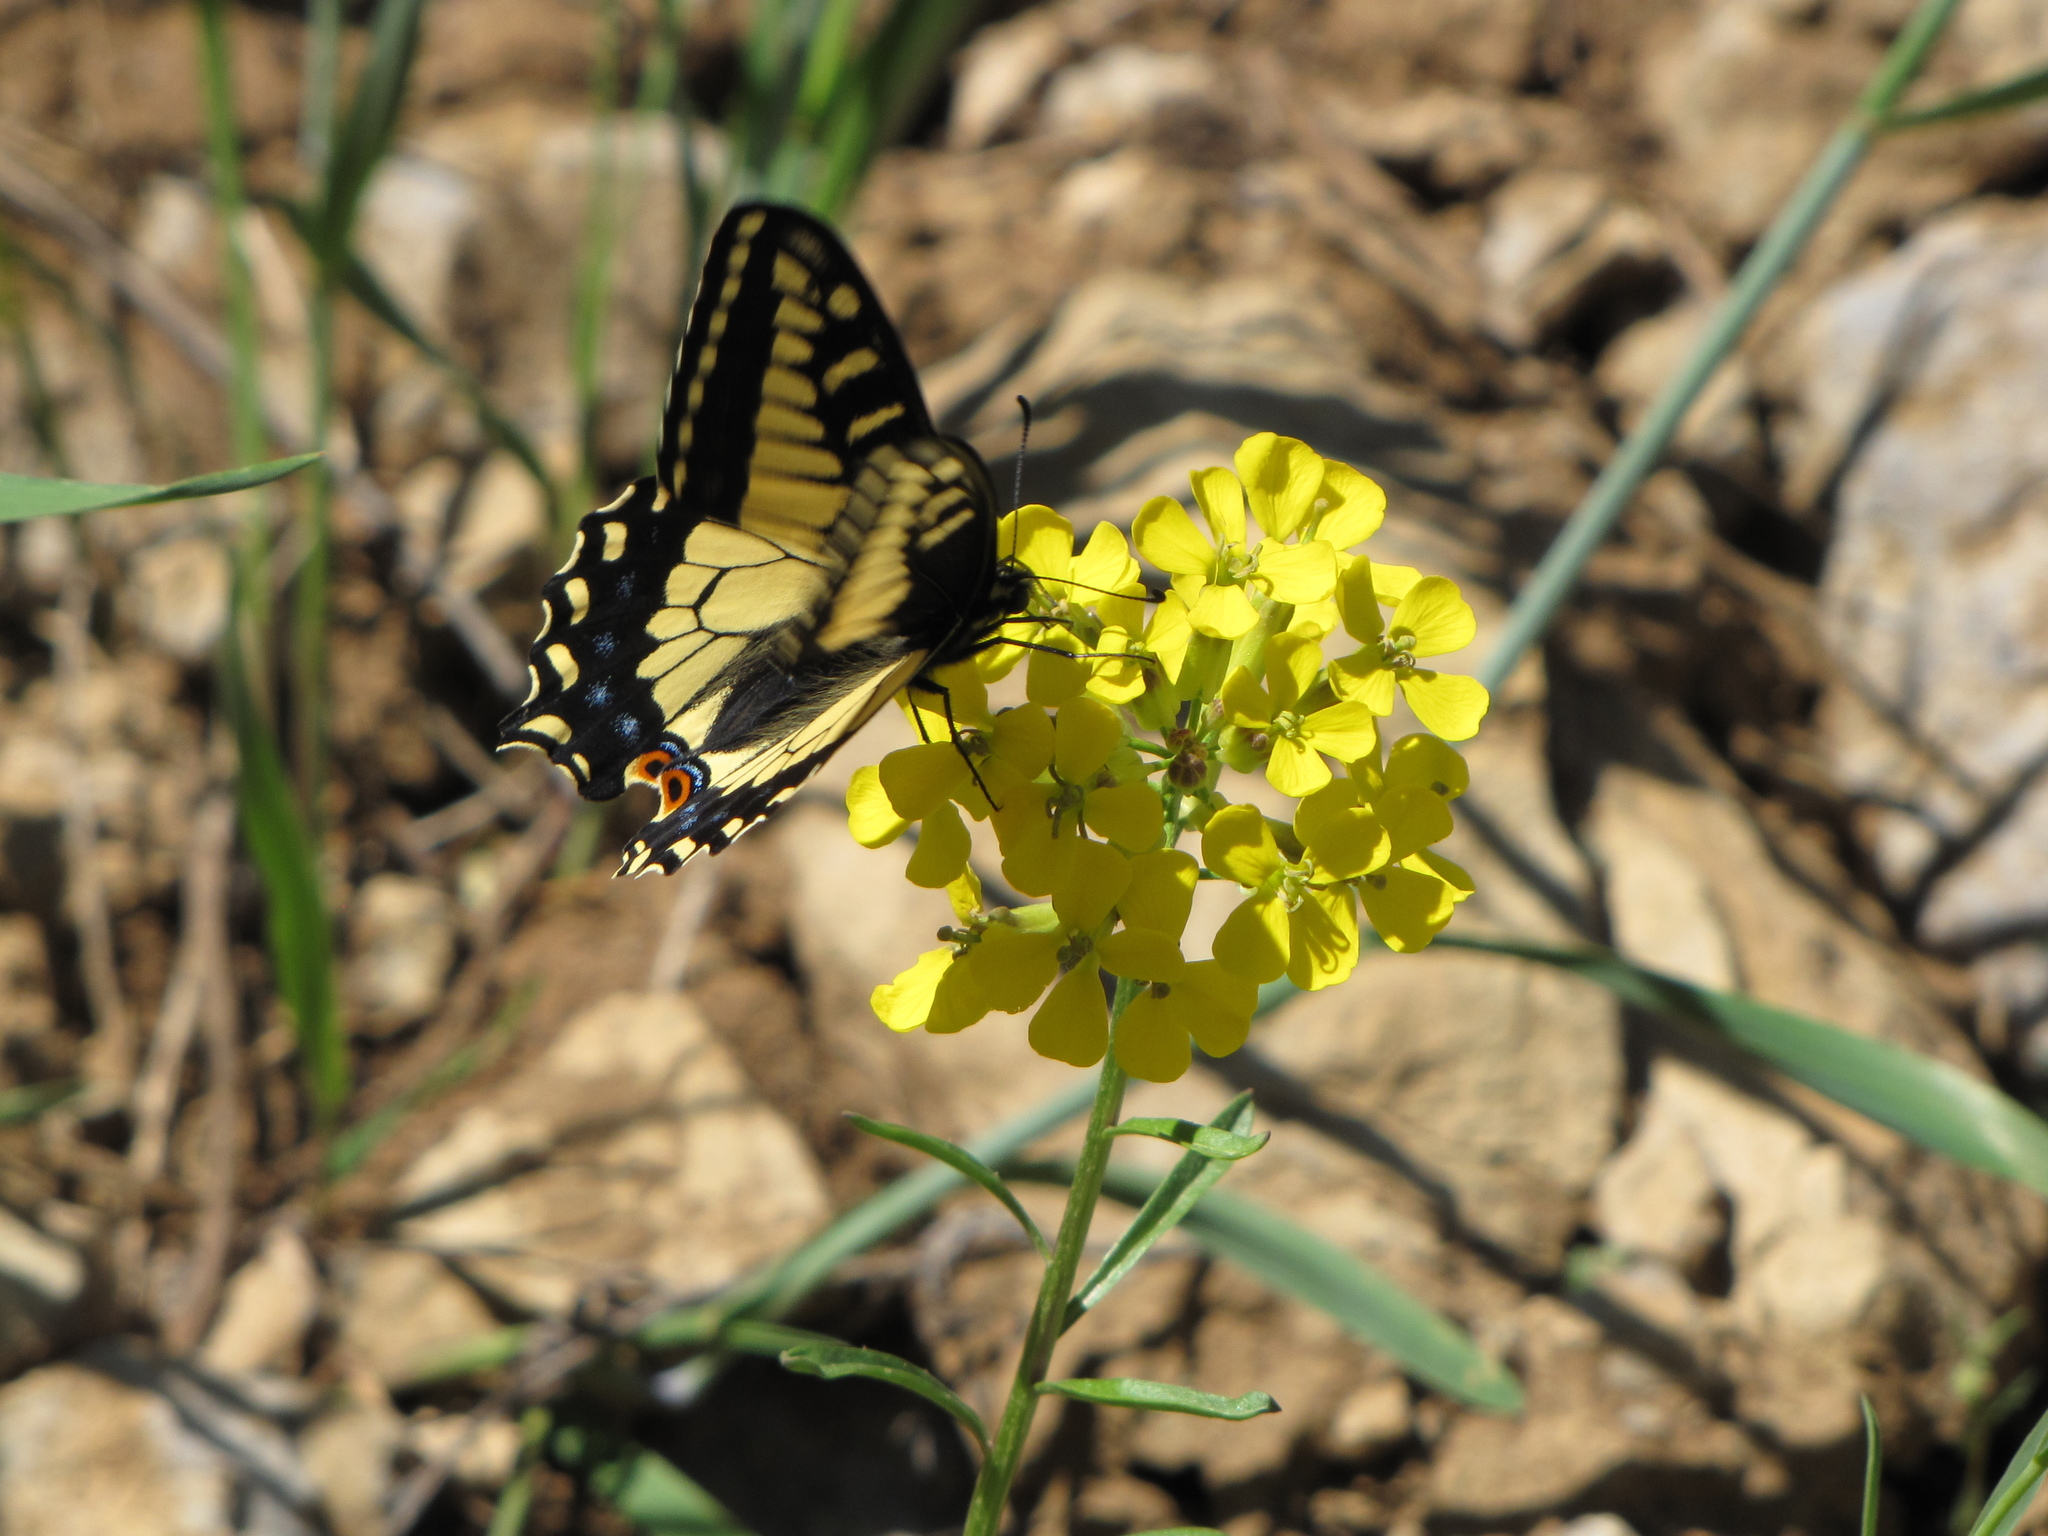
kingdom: Animalia
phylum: Arthropoda
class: Insecta
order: Lepidoptera
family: Papilionidae
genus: Papilio
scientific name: Papilio zelicaon
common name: Anise swallowtail
